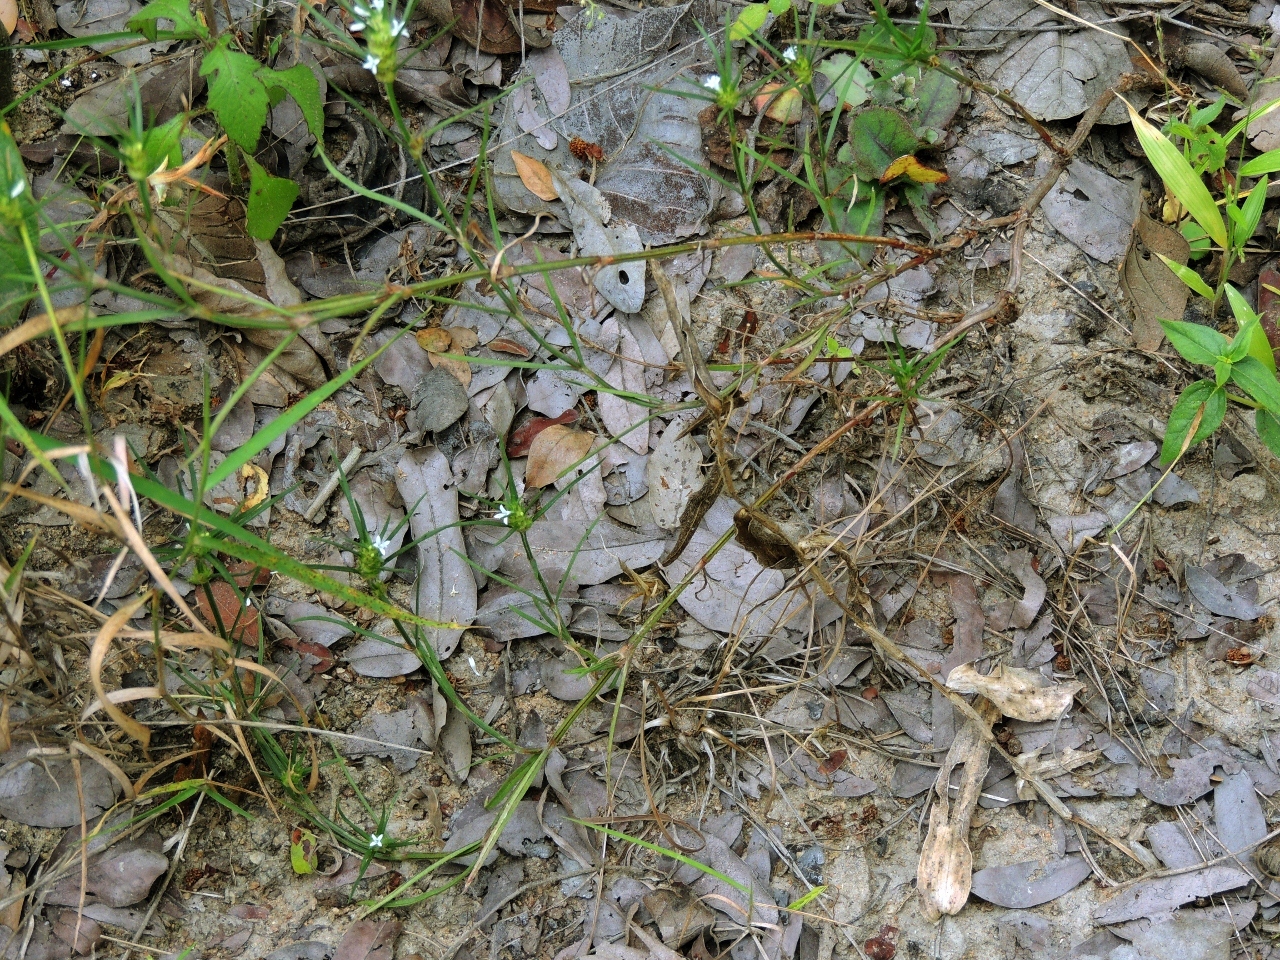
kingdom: Plantae
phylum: Tracheophyta
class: Magnoliopsida
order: Gentianales
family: Rubiaceae
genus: Spermacoce
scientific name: Spermacoce subvulgata
